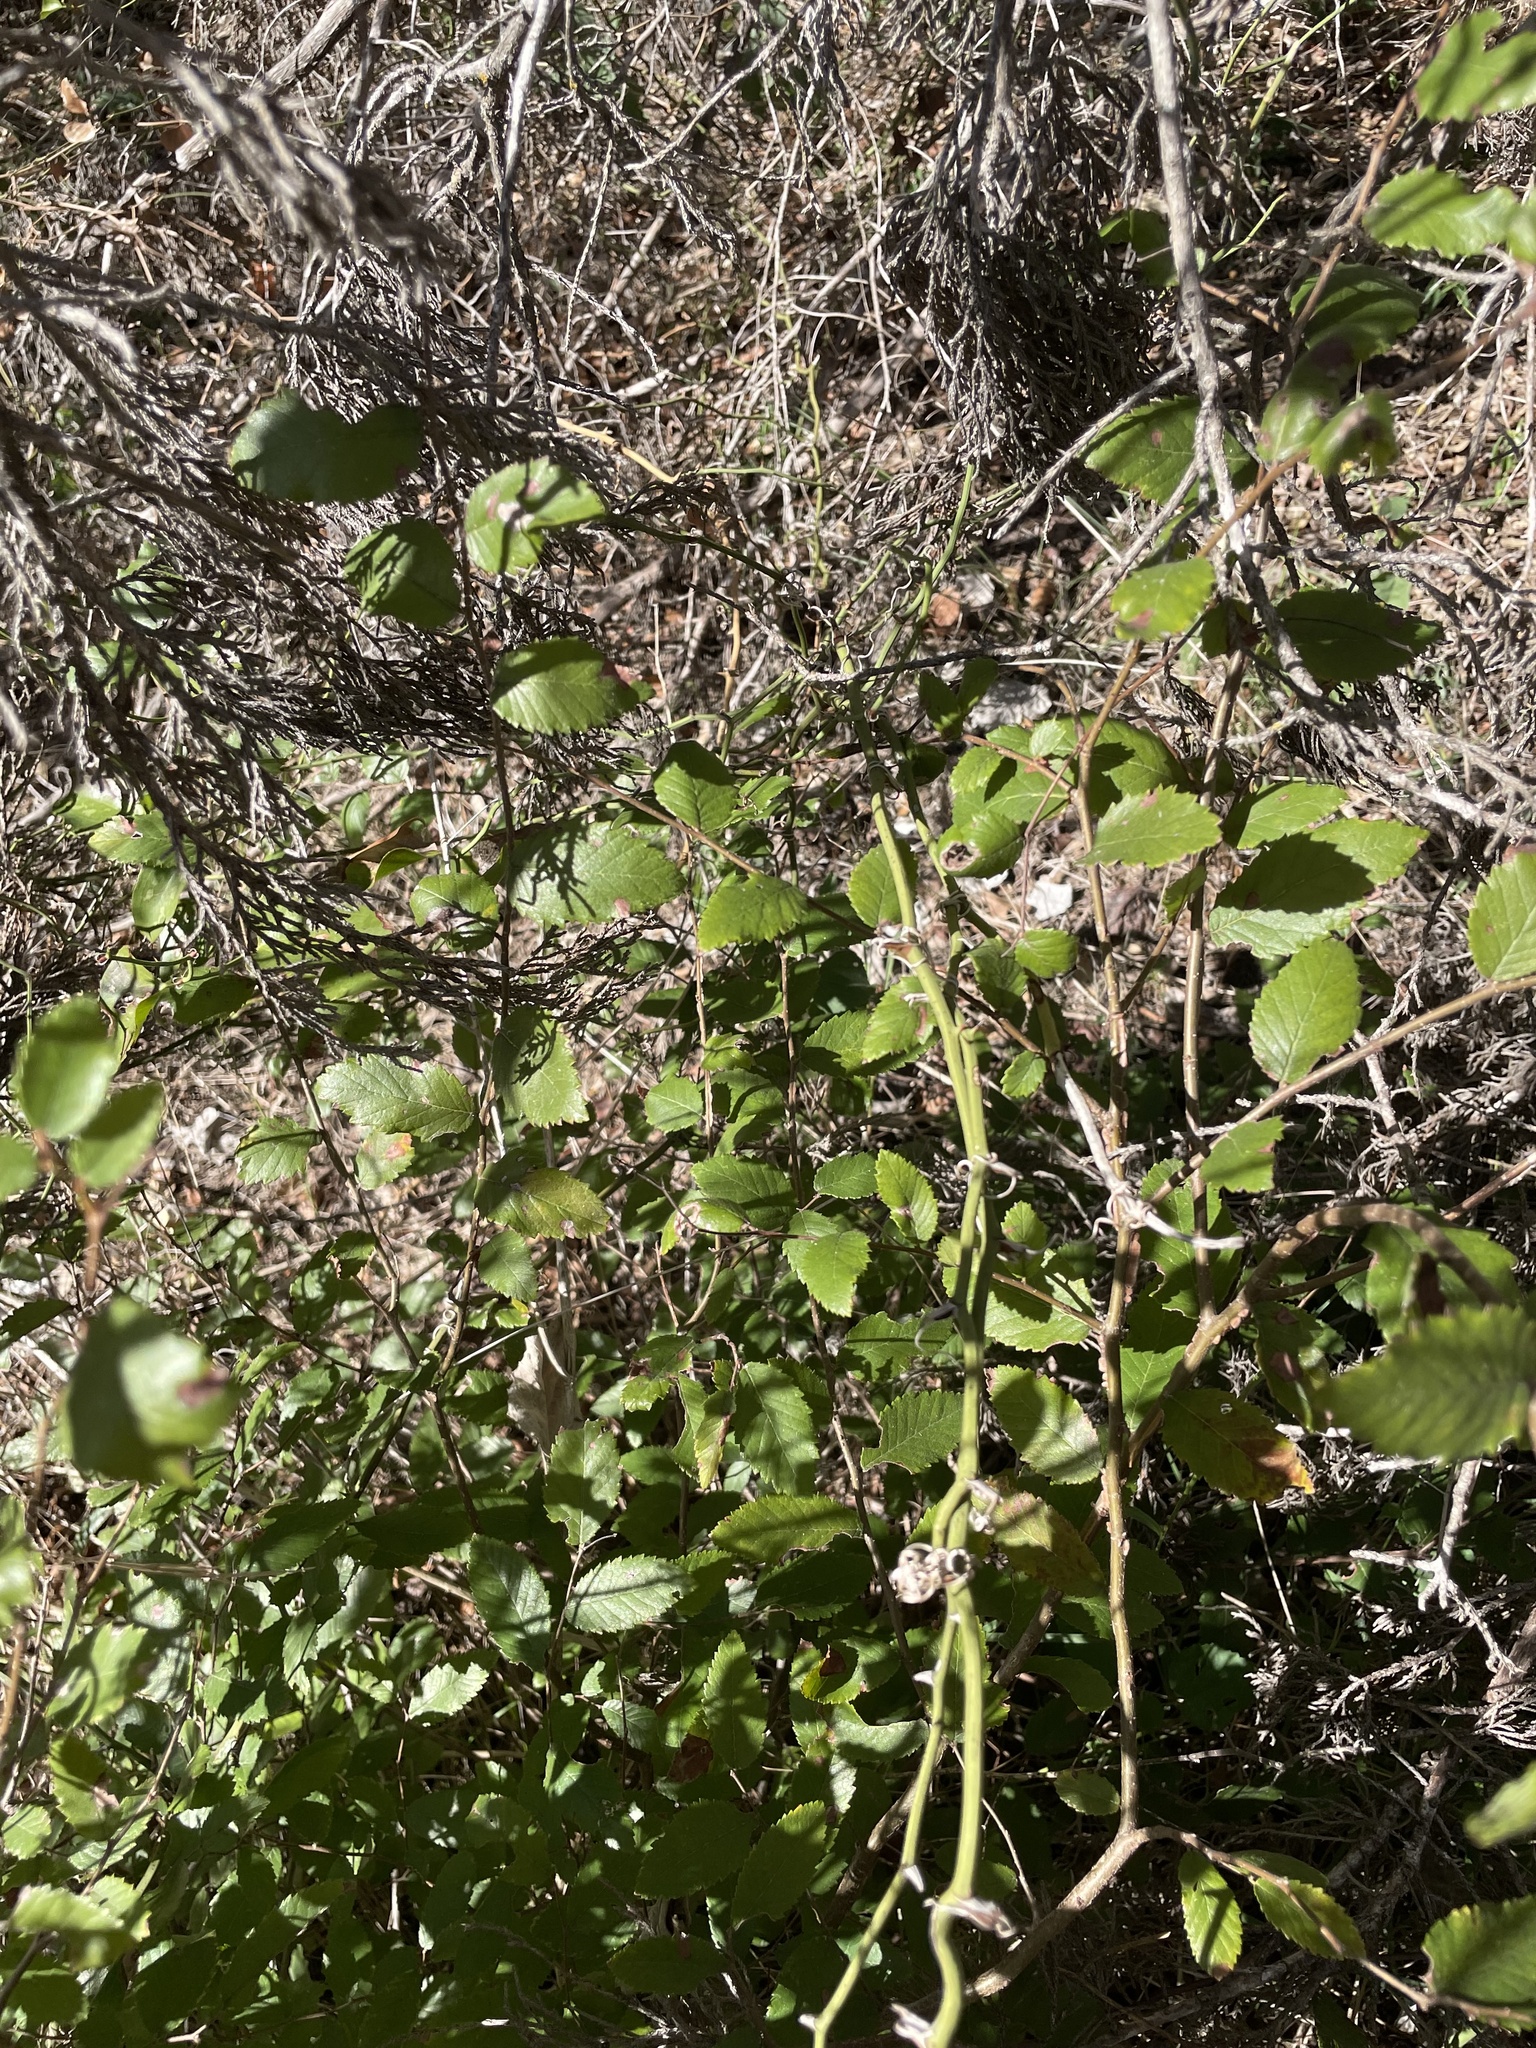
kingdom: Plantae
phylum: Tracheophyta
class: Magnoliopsida
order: Rosales
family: Ulmaceae
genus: Ulmus
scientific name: Ulmus crassifolia
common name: Basket elm
